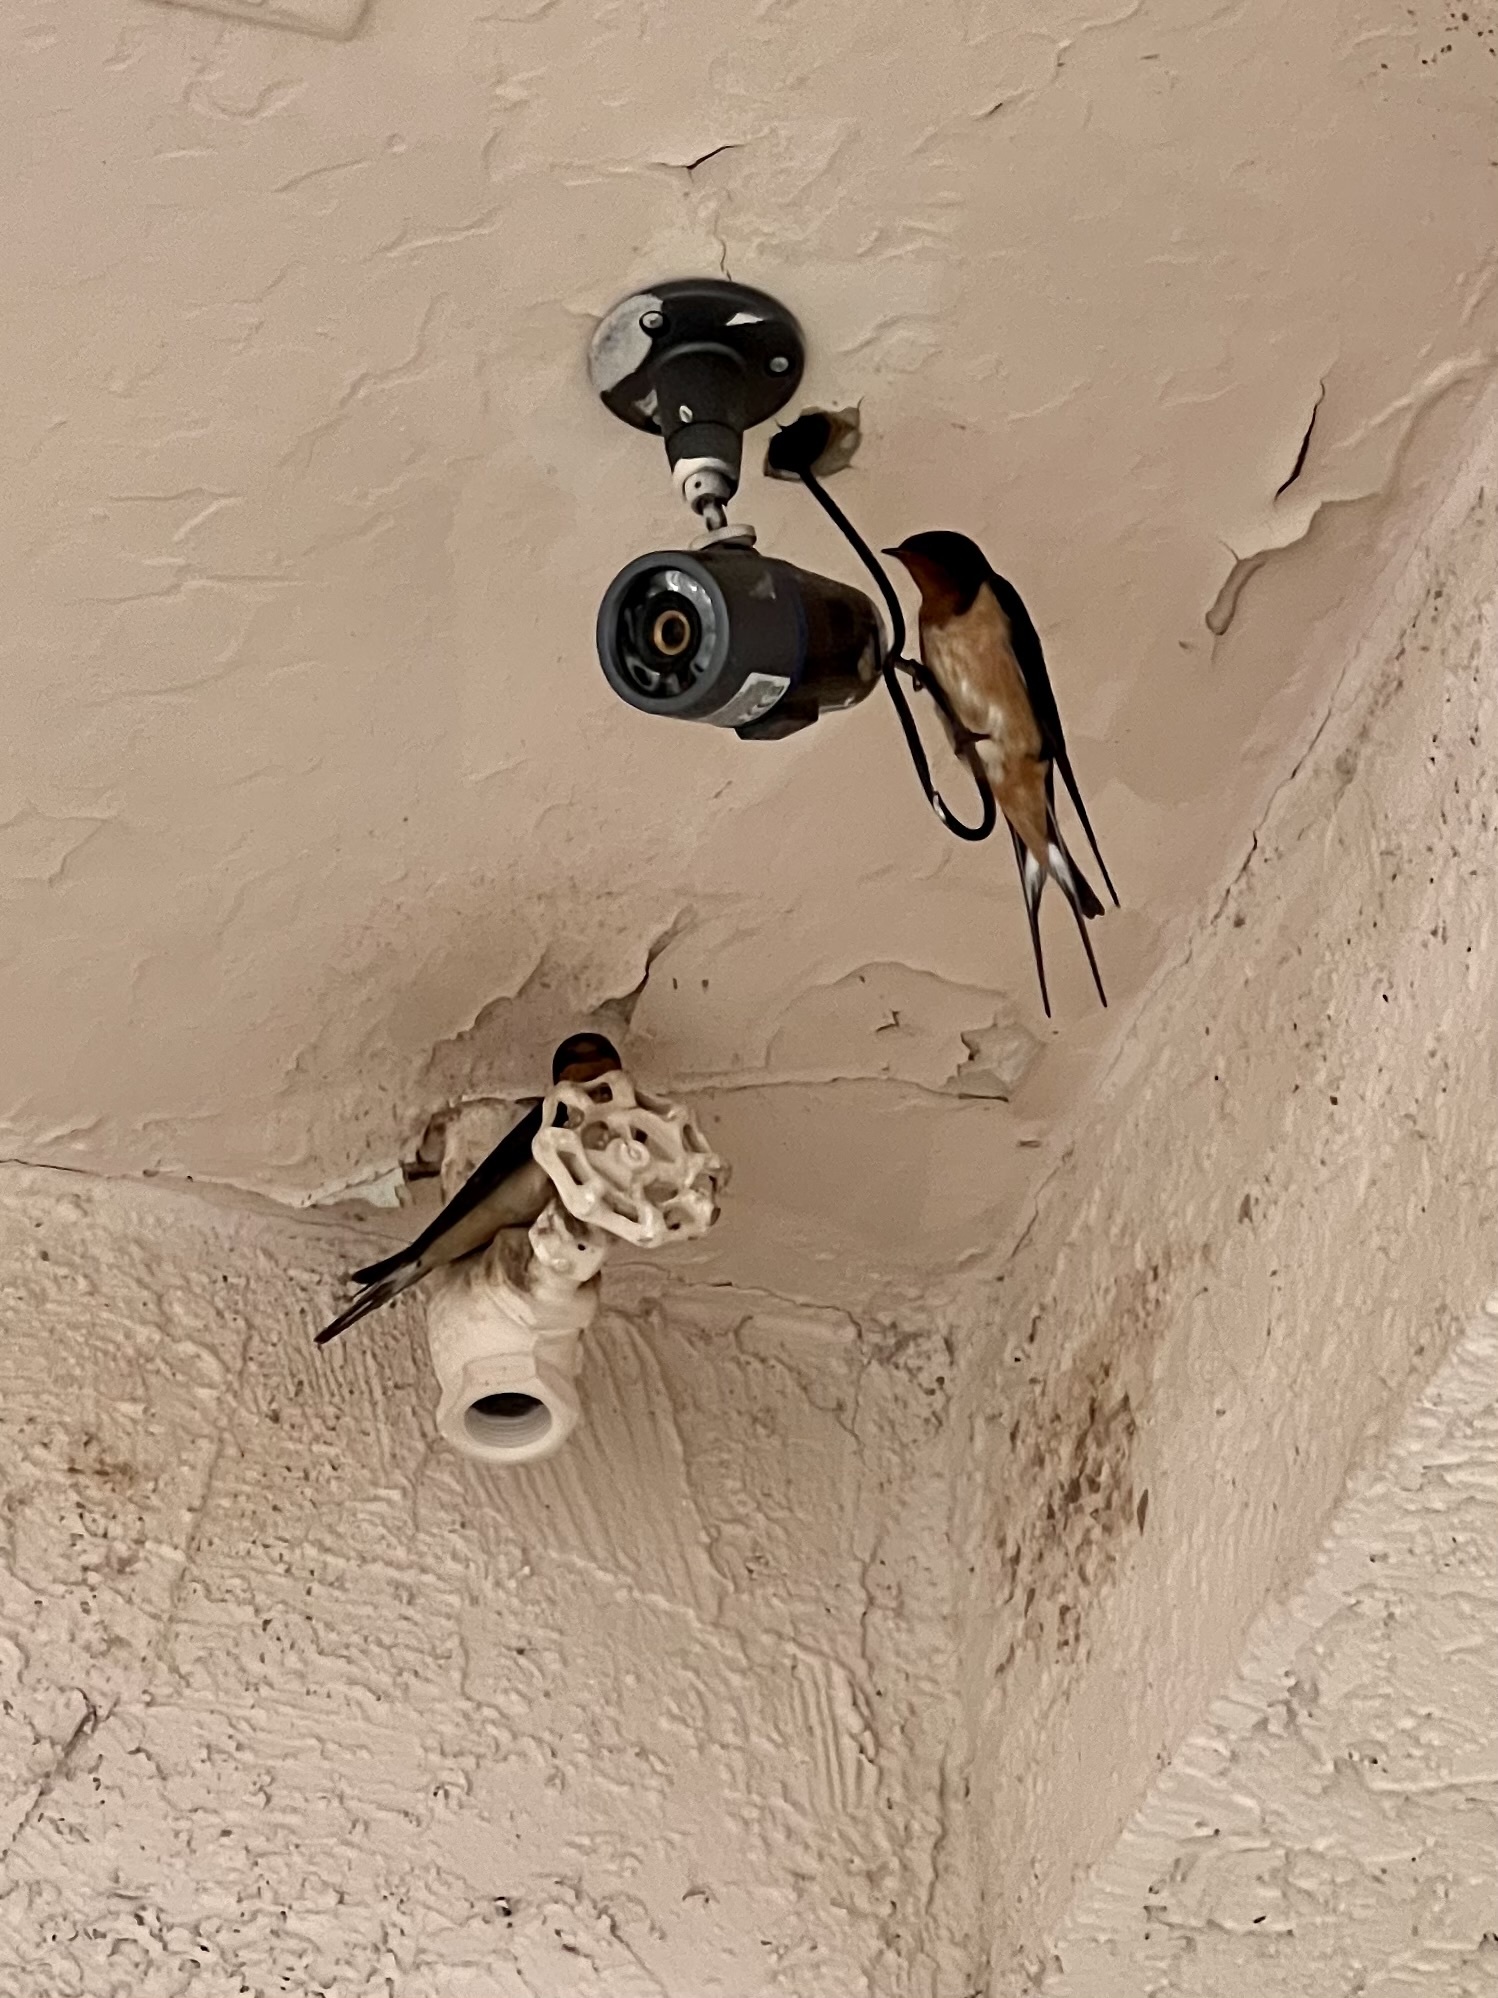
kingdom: Animalia
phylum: Chordata
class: Aves
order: Passeriformes
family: Hirundinidae
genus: Hirundo
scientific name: Hirundo rustica
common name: Barn swallow
